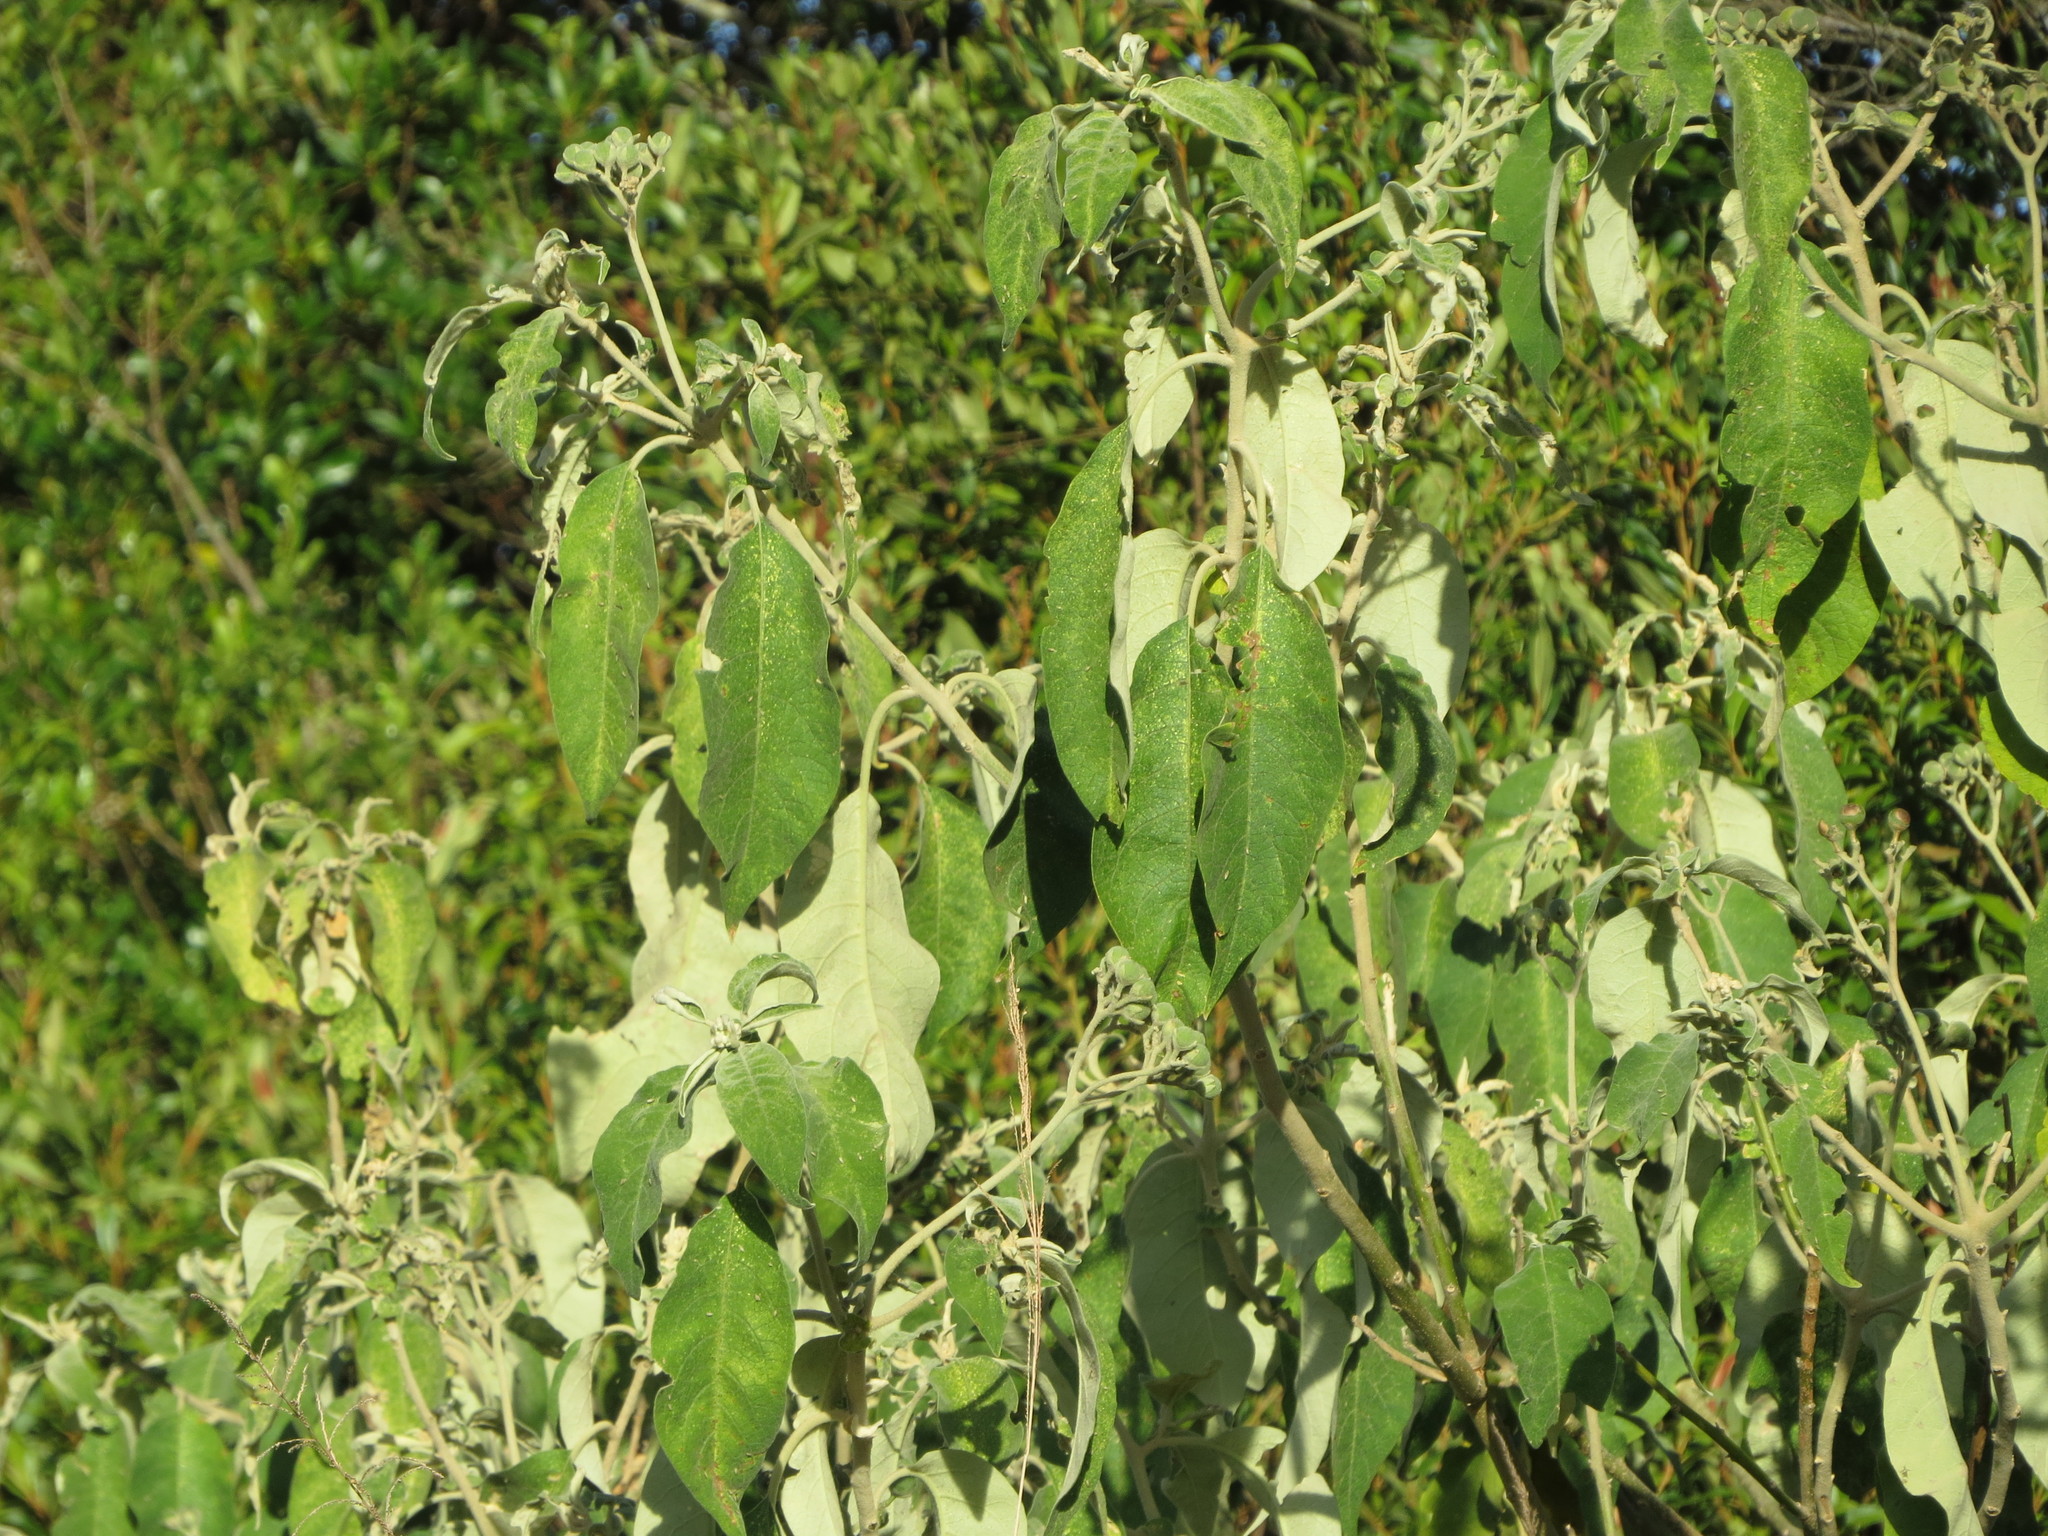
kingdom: Plantae
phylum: Tracheophyta
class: Magnoliopsida
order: Solanales
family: Solanaceae
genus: Solanum
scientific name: Solanum mauritianum
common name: Earleaf nightshade
